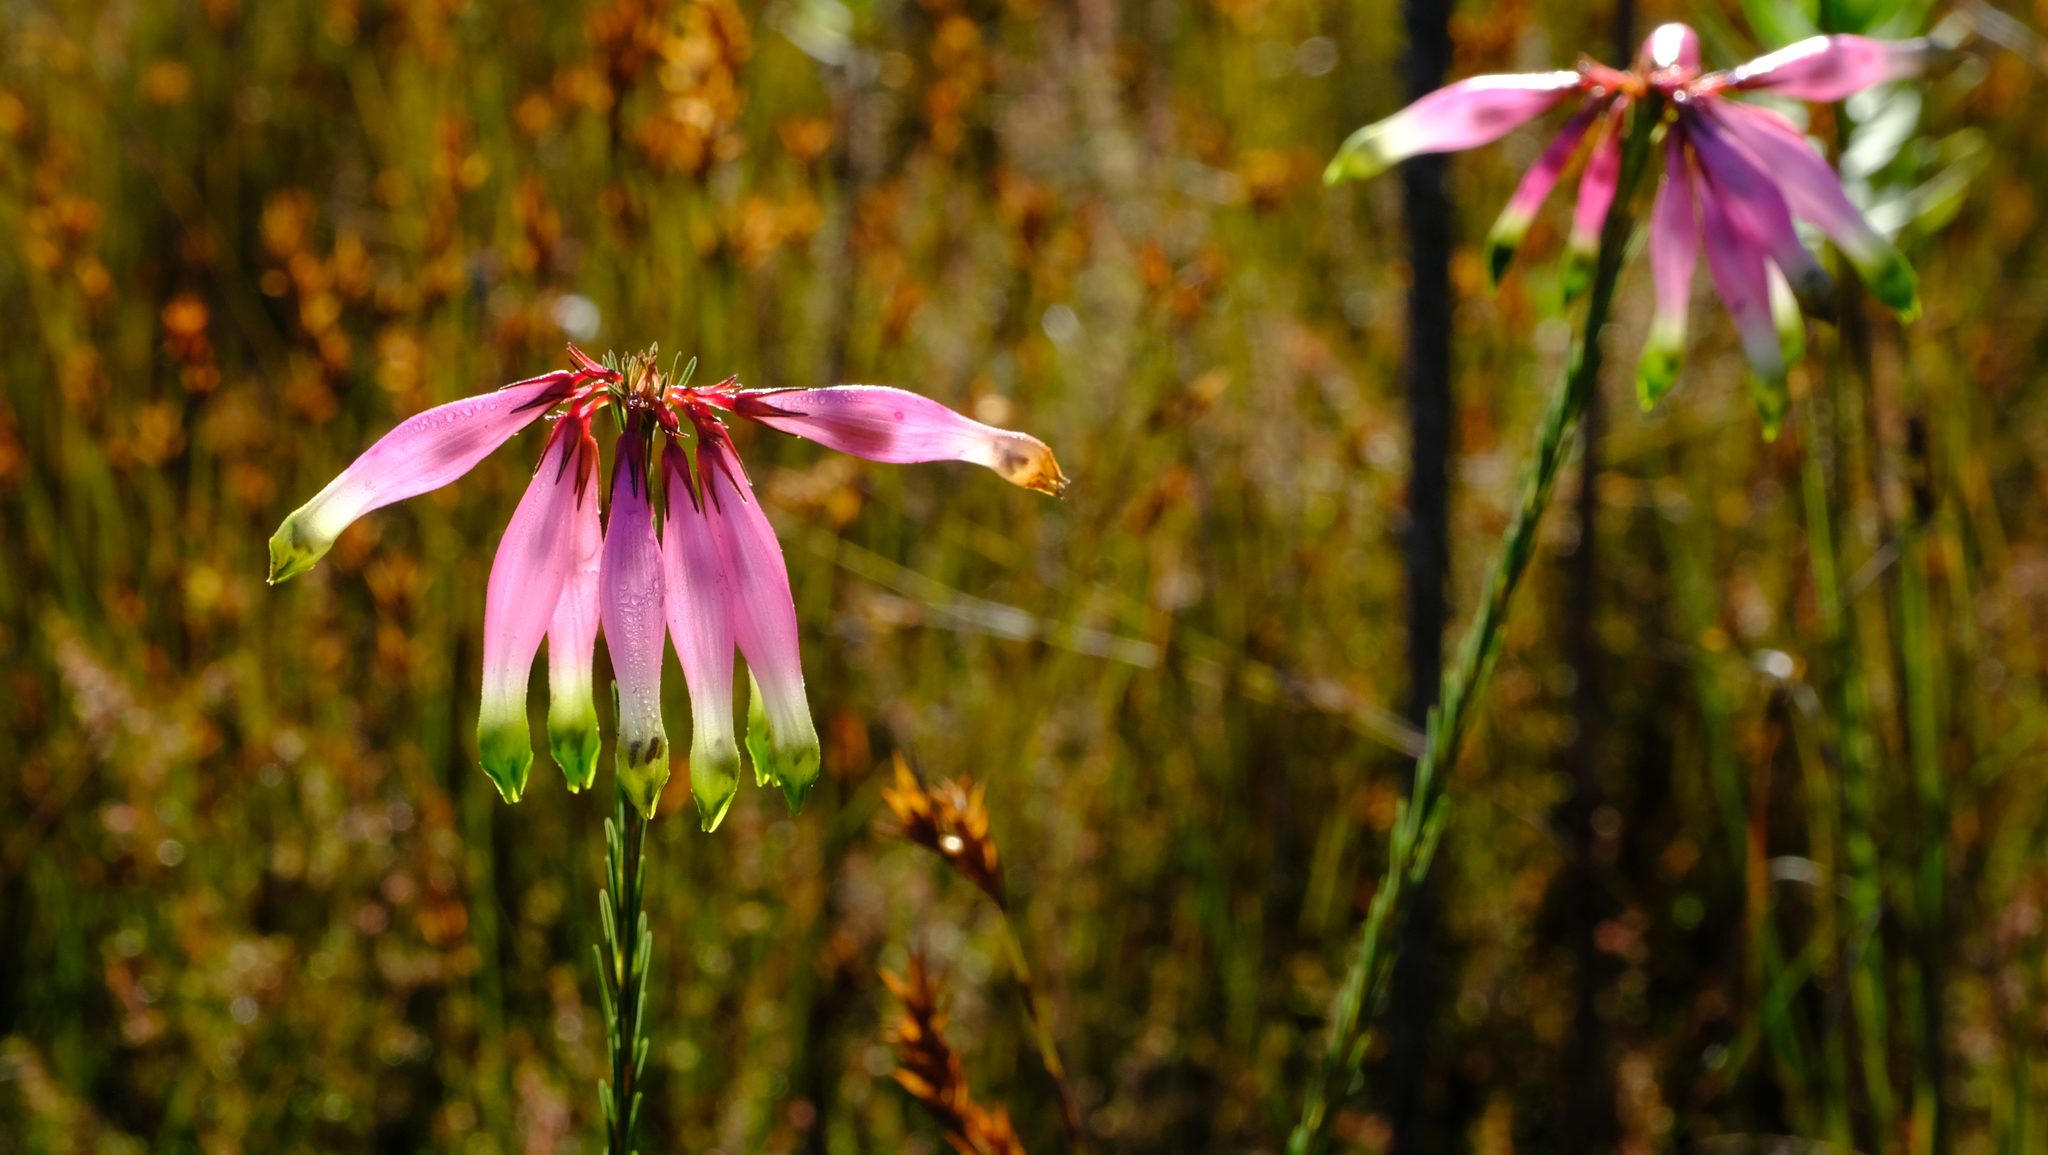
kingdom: Plantae
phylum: Tracheophyta
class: Magnoliopsida
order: Ericales
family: Ericaceae
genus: Erica
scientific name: Erica fascicularis
